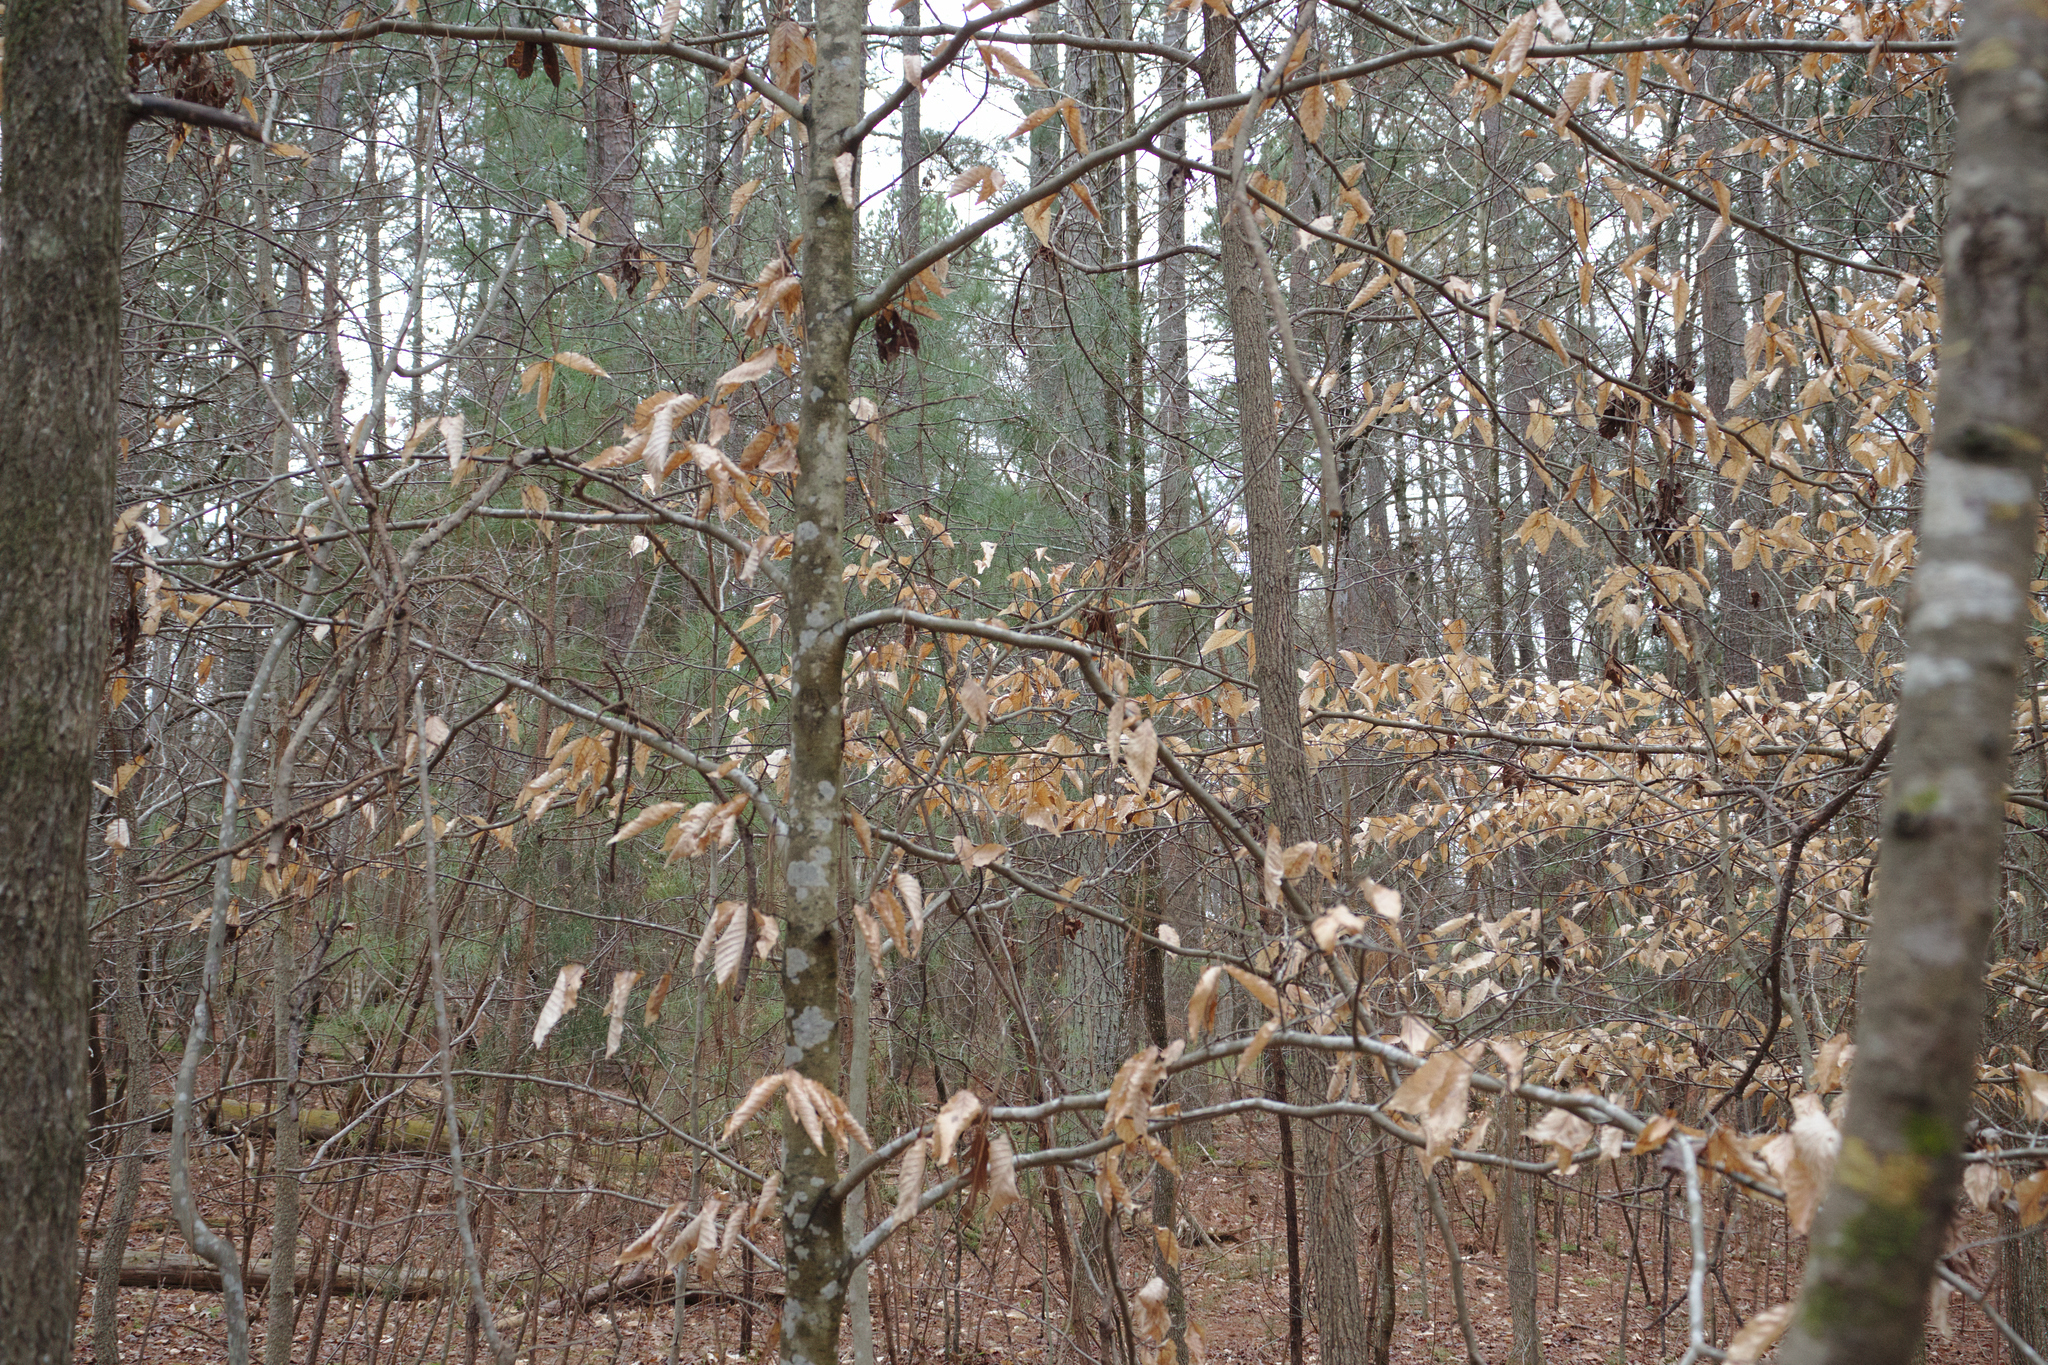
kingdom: Plantae
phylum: Tracheophyta
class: Magnoliopsida
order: Fagales
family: Fagaceae
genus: Fagus
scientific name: Fagus grandifolia
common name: American beech
